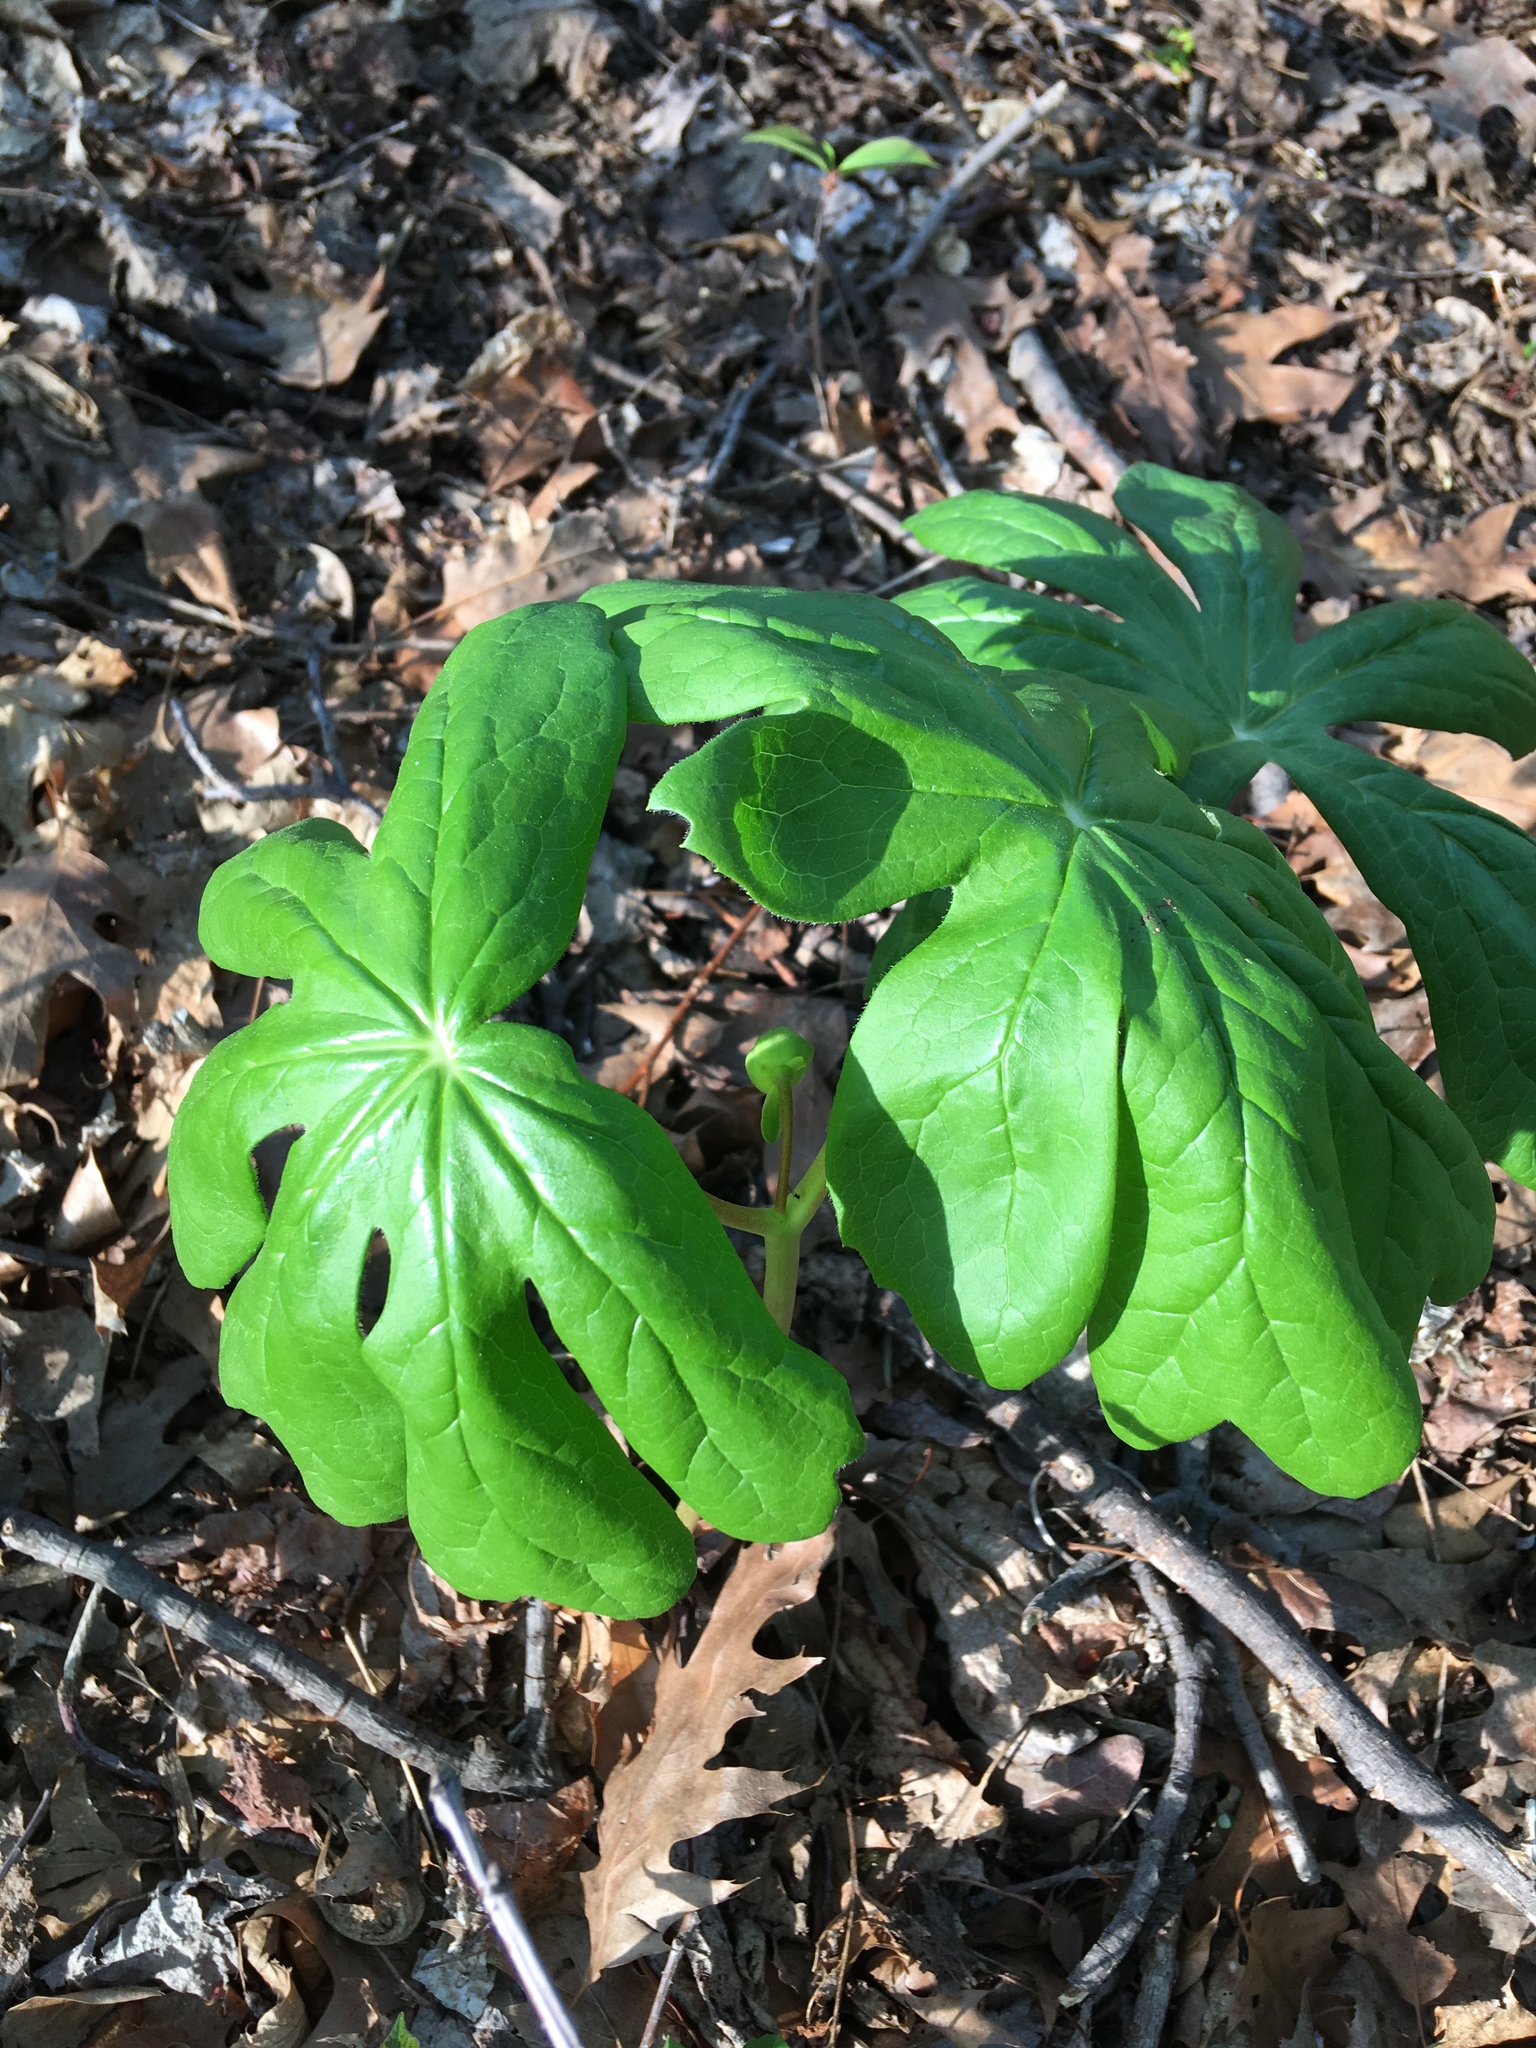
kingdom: Plantae
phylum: Tracheophyta
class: Magnoliopsida
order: Ranunculales
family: Berberidaceae
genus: Podophyllum
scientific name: Podophyllum peltatum
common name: Wild mandrake
